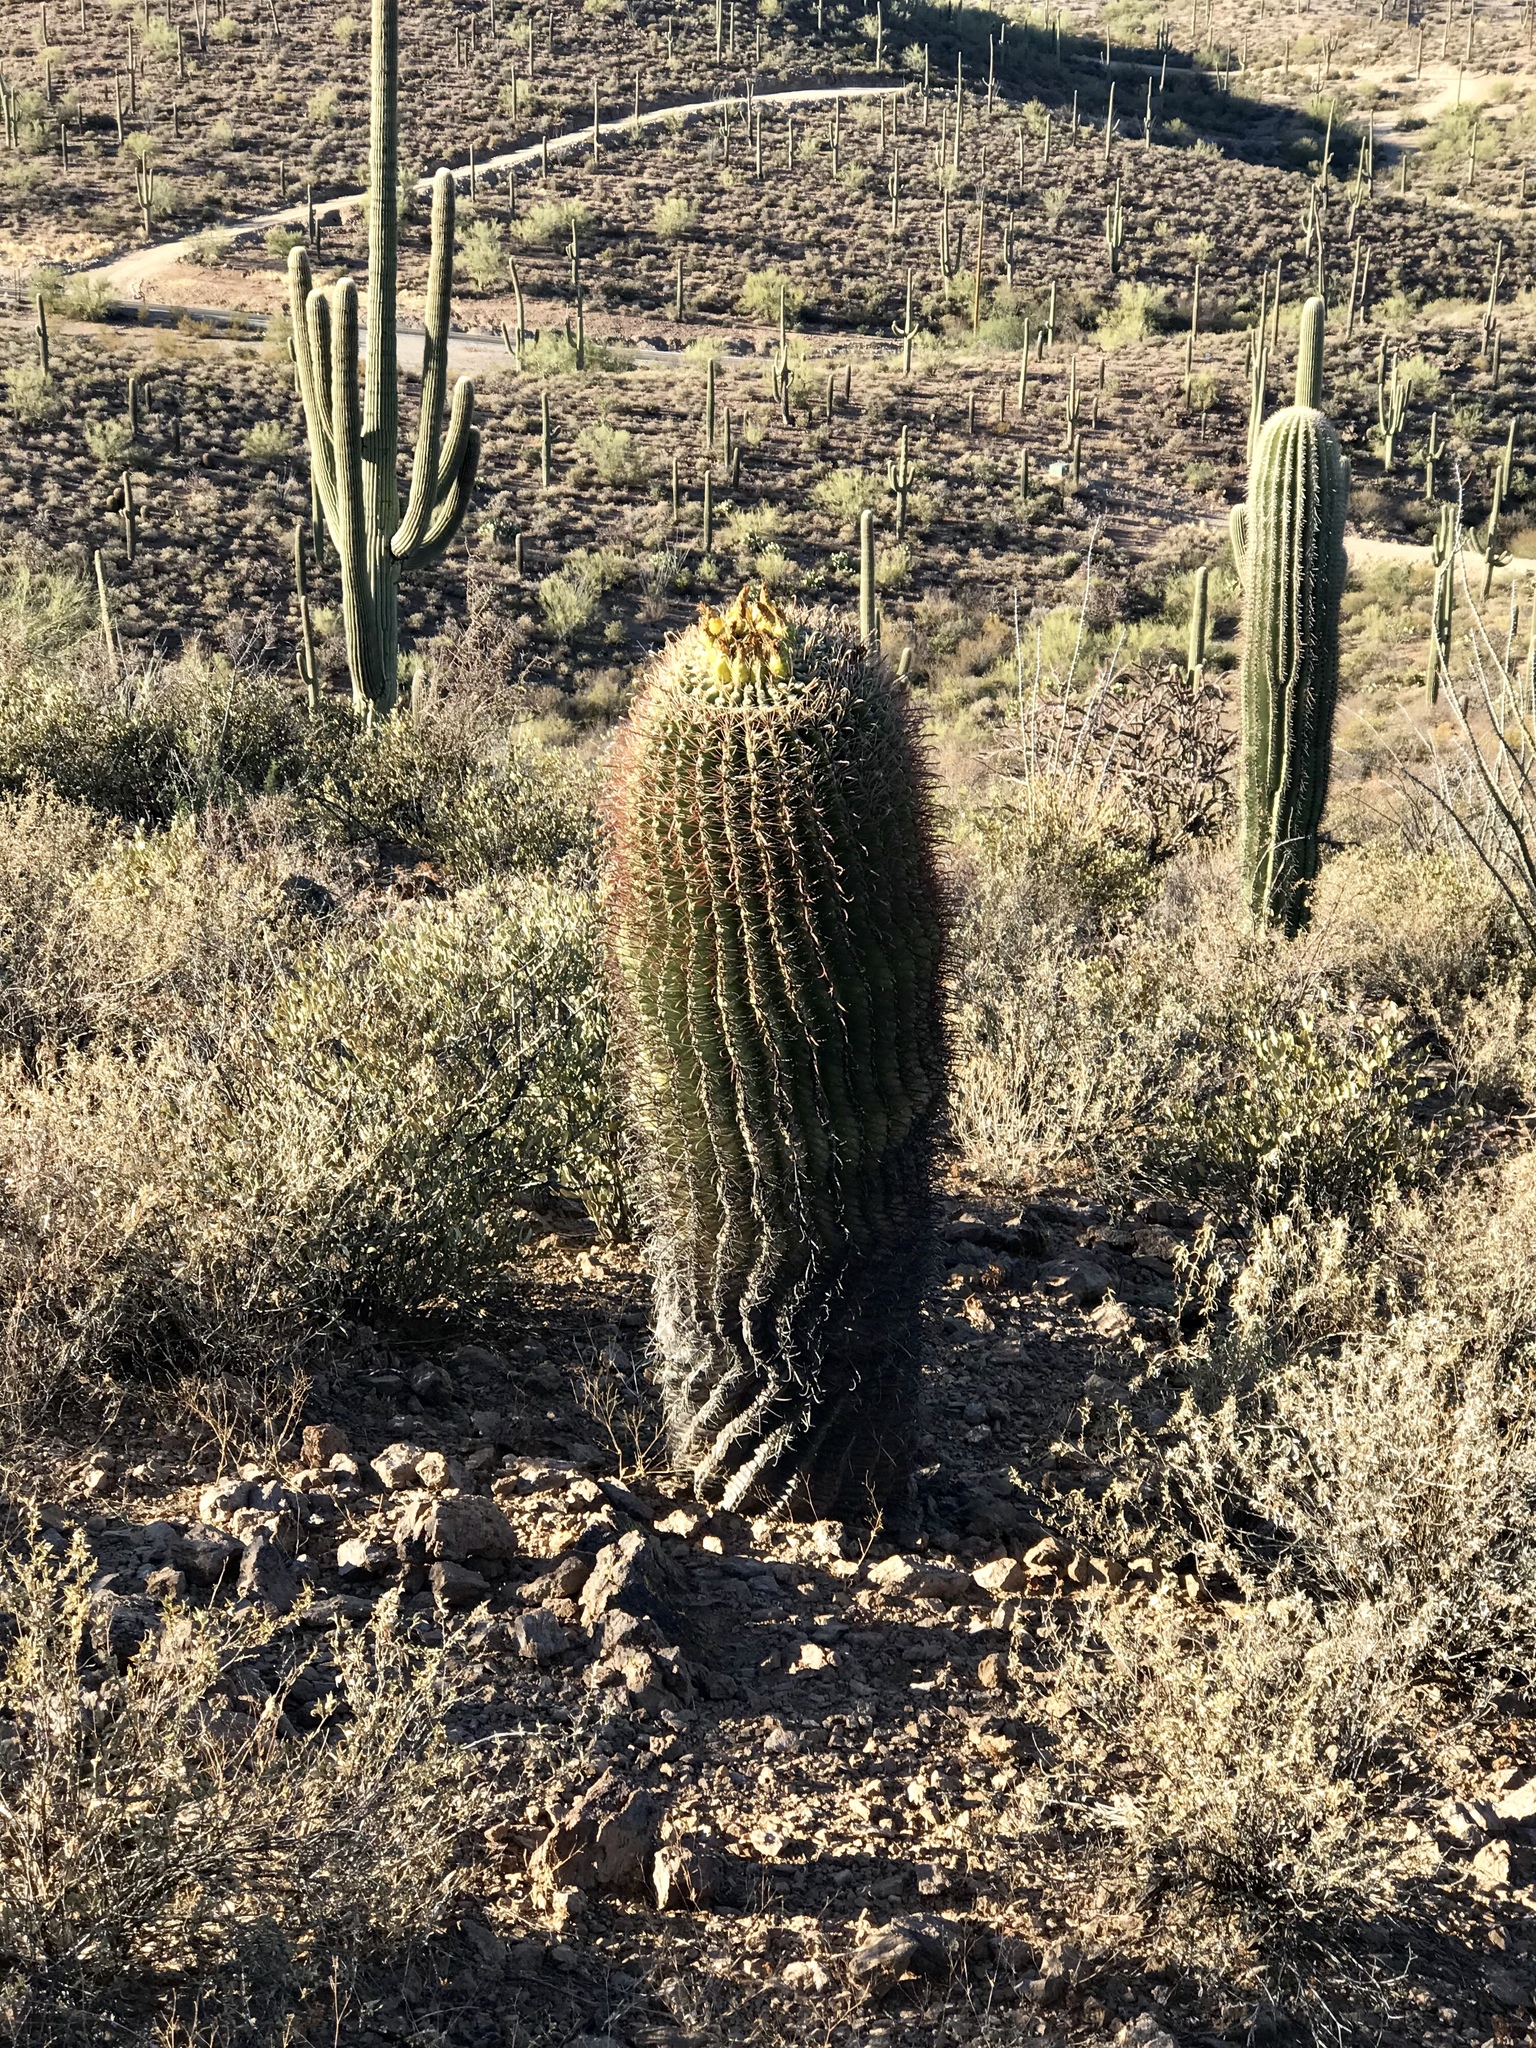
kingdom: Plantae
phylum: Tracheophyta
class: Magnoliopsida
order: Caryophyllales
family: Cactaceae
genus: Ferocactus
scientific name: Ferocactus wislizeni
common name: Candy barrel cactus
